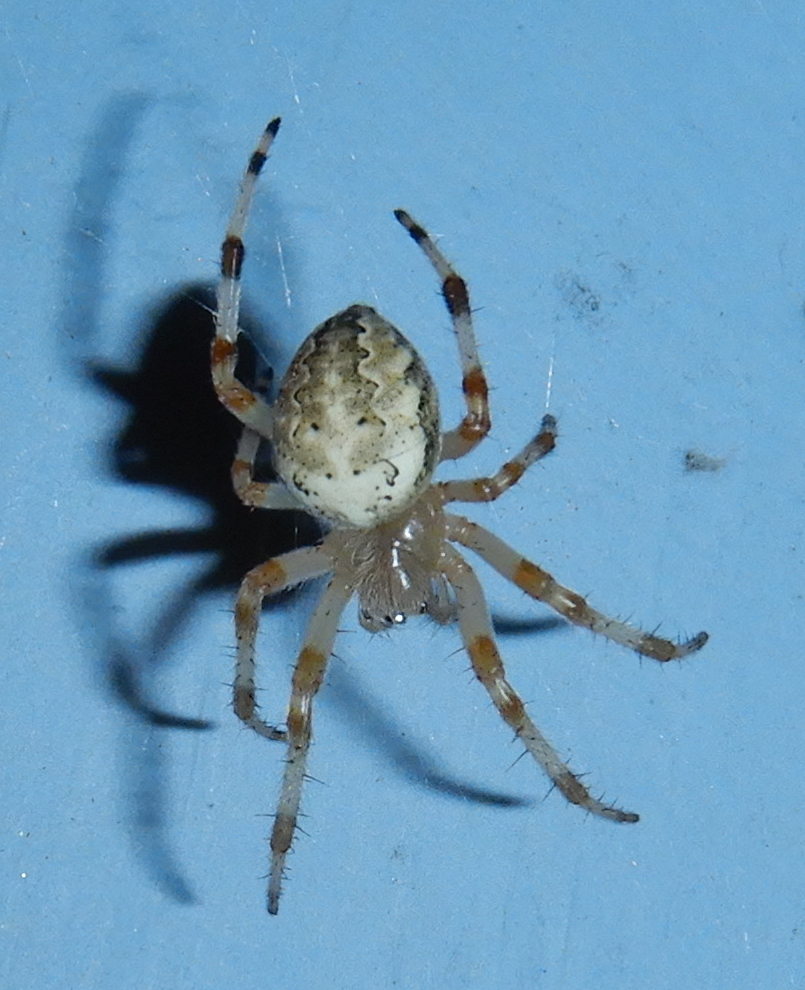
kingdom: Animalia
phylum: Arthropoda
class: Arachnida
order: Araneae
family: Araneidae
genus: Araneus
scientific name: Araneus marmoreus
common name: Marbled orbweaver
